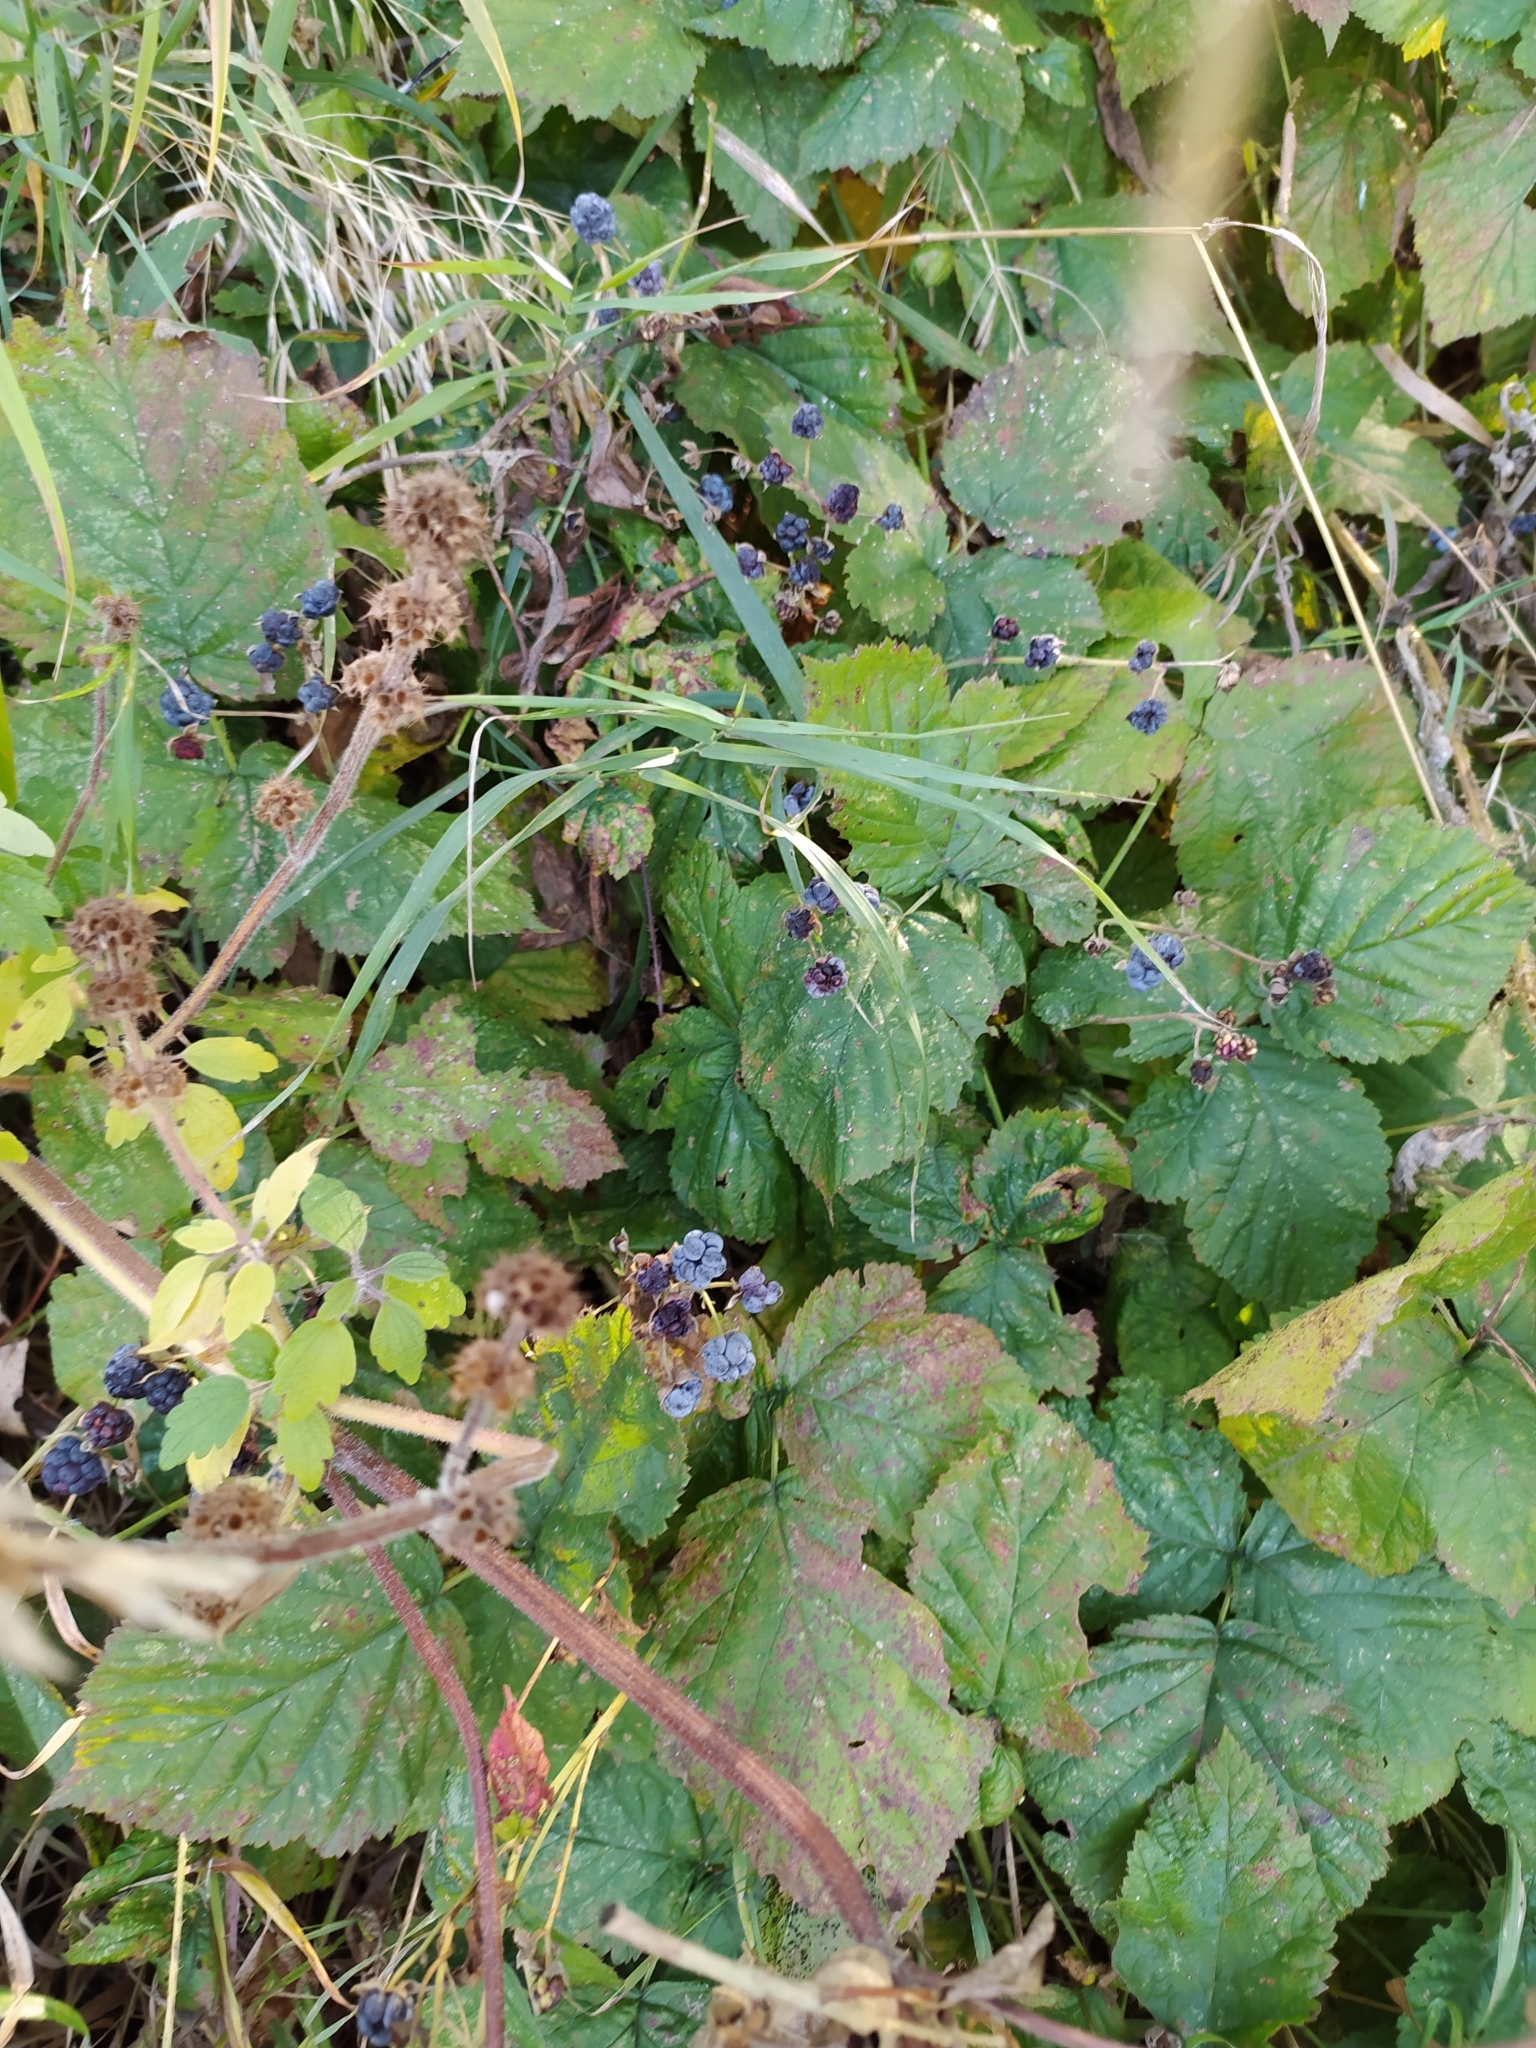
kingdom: Plantae
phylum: Tracheophyta
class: Magnoliopsida
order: Rosales
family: Rosaceae
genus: Rubus
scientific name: Rubus caesius
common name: Dewberry
